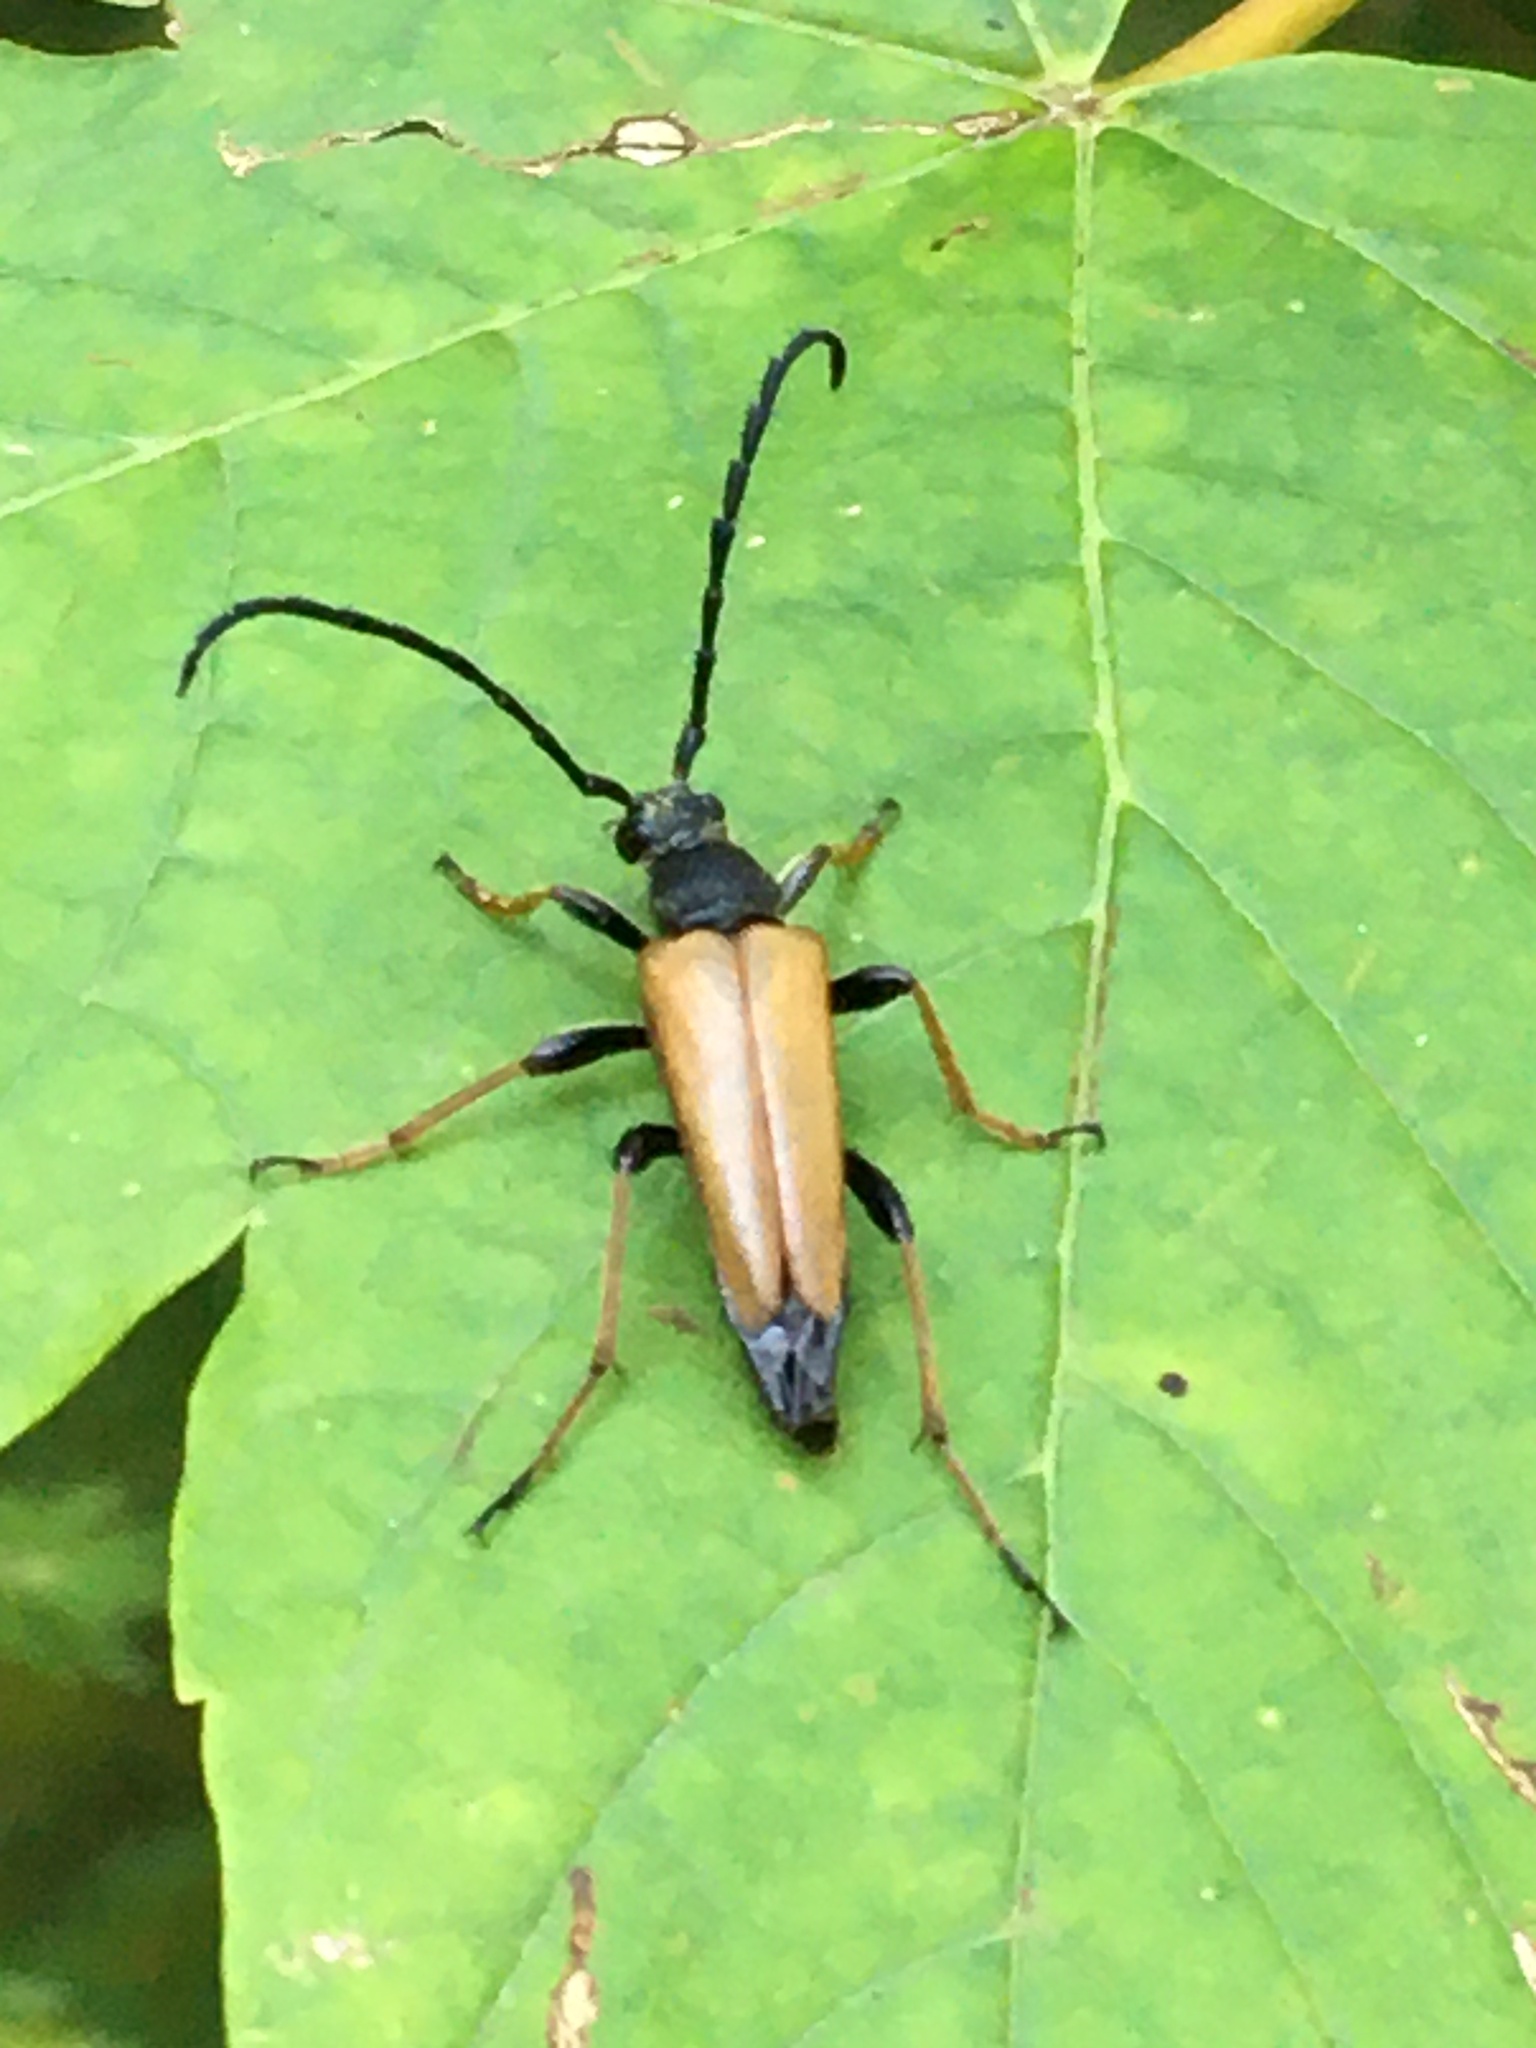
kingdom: Animalia
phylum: Arthropoda
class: Insecta
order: Coleoptera
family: Cerambycidae
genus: Stictoleptura
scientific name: Stictoleptura rubra
